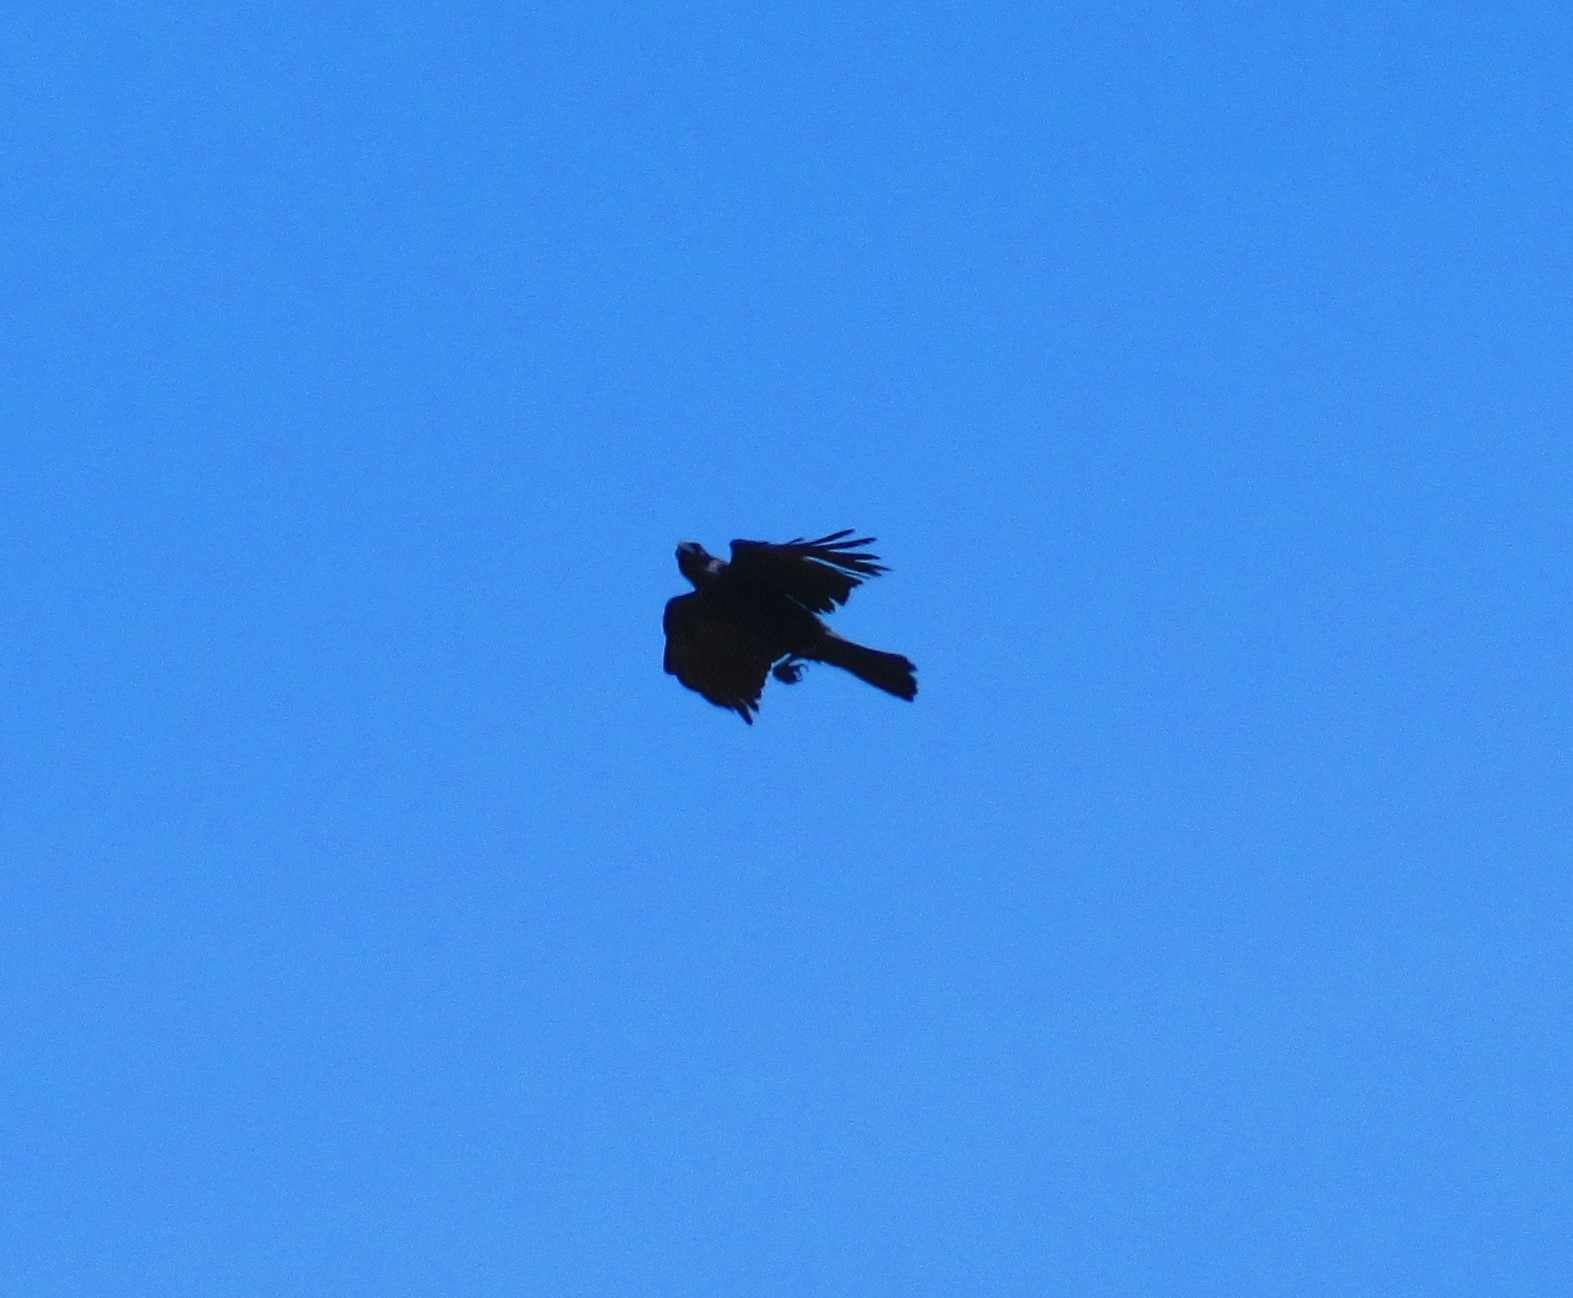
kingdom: Animalia
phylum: Chordata
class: Aves
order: Passeriformes
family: Corvidae
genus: Corvus
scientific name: Corvus corax
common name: Common raven
